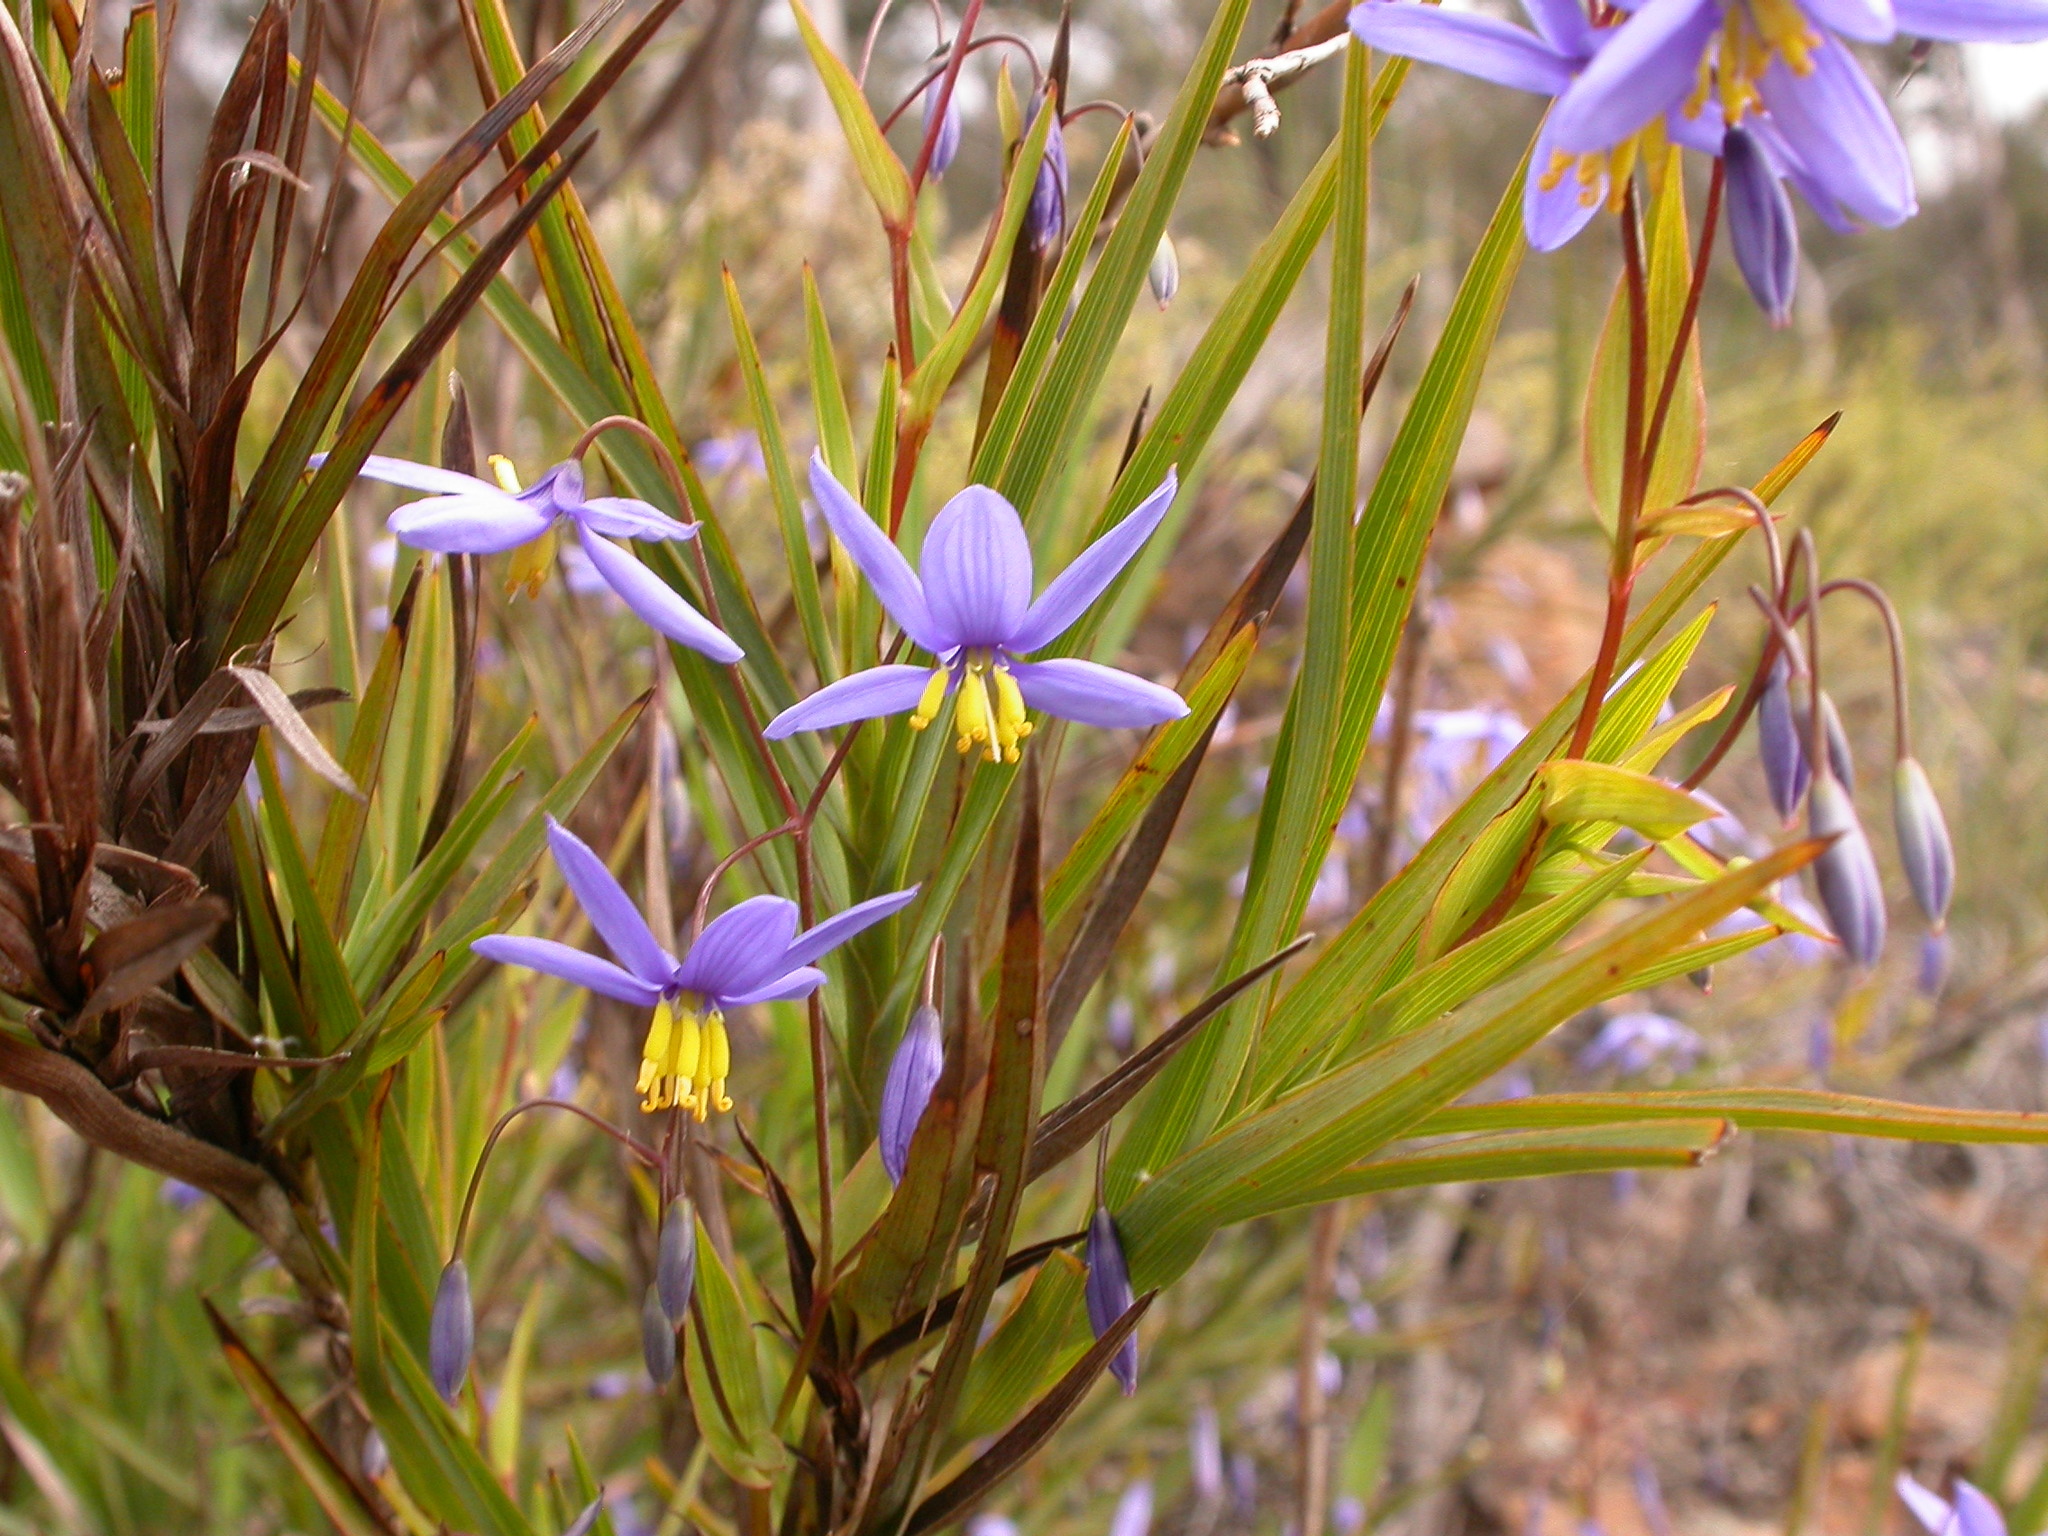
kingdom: Plantae
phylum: Tracheophyta
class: Liliopsida
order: Asparagales
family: Asphodelaceae
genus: Stypandra
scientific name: Stypandra glauca
